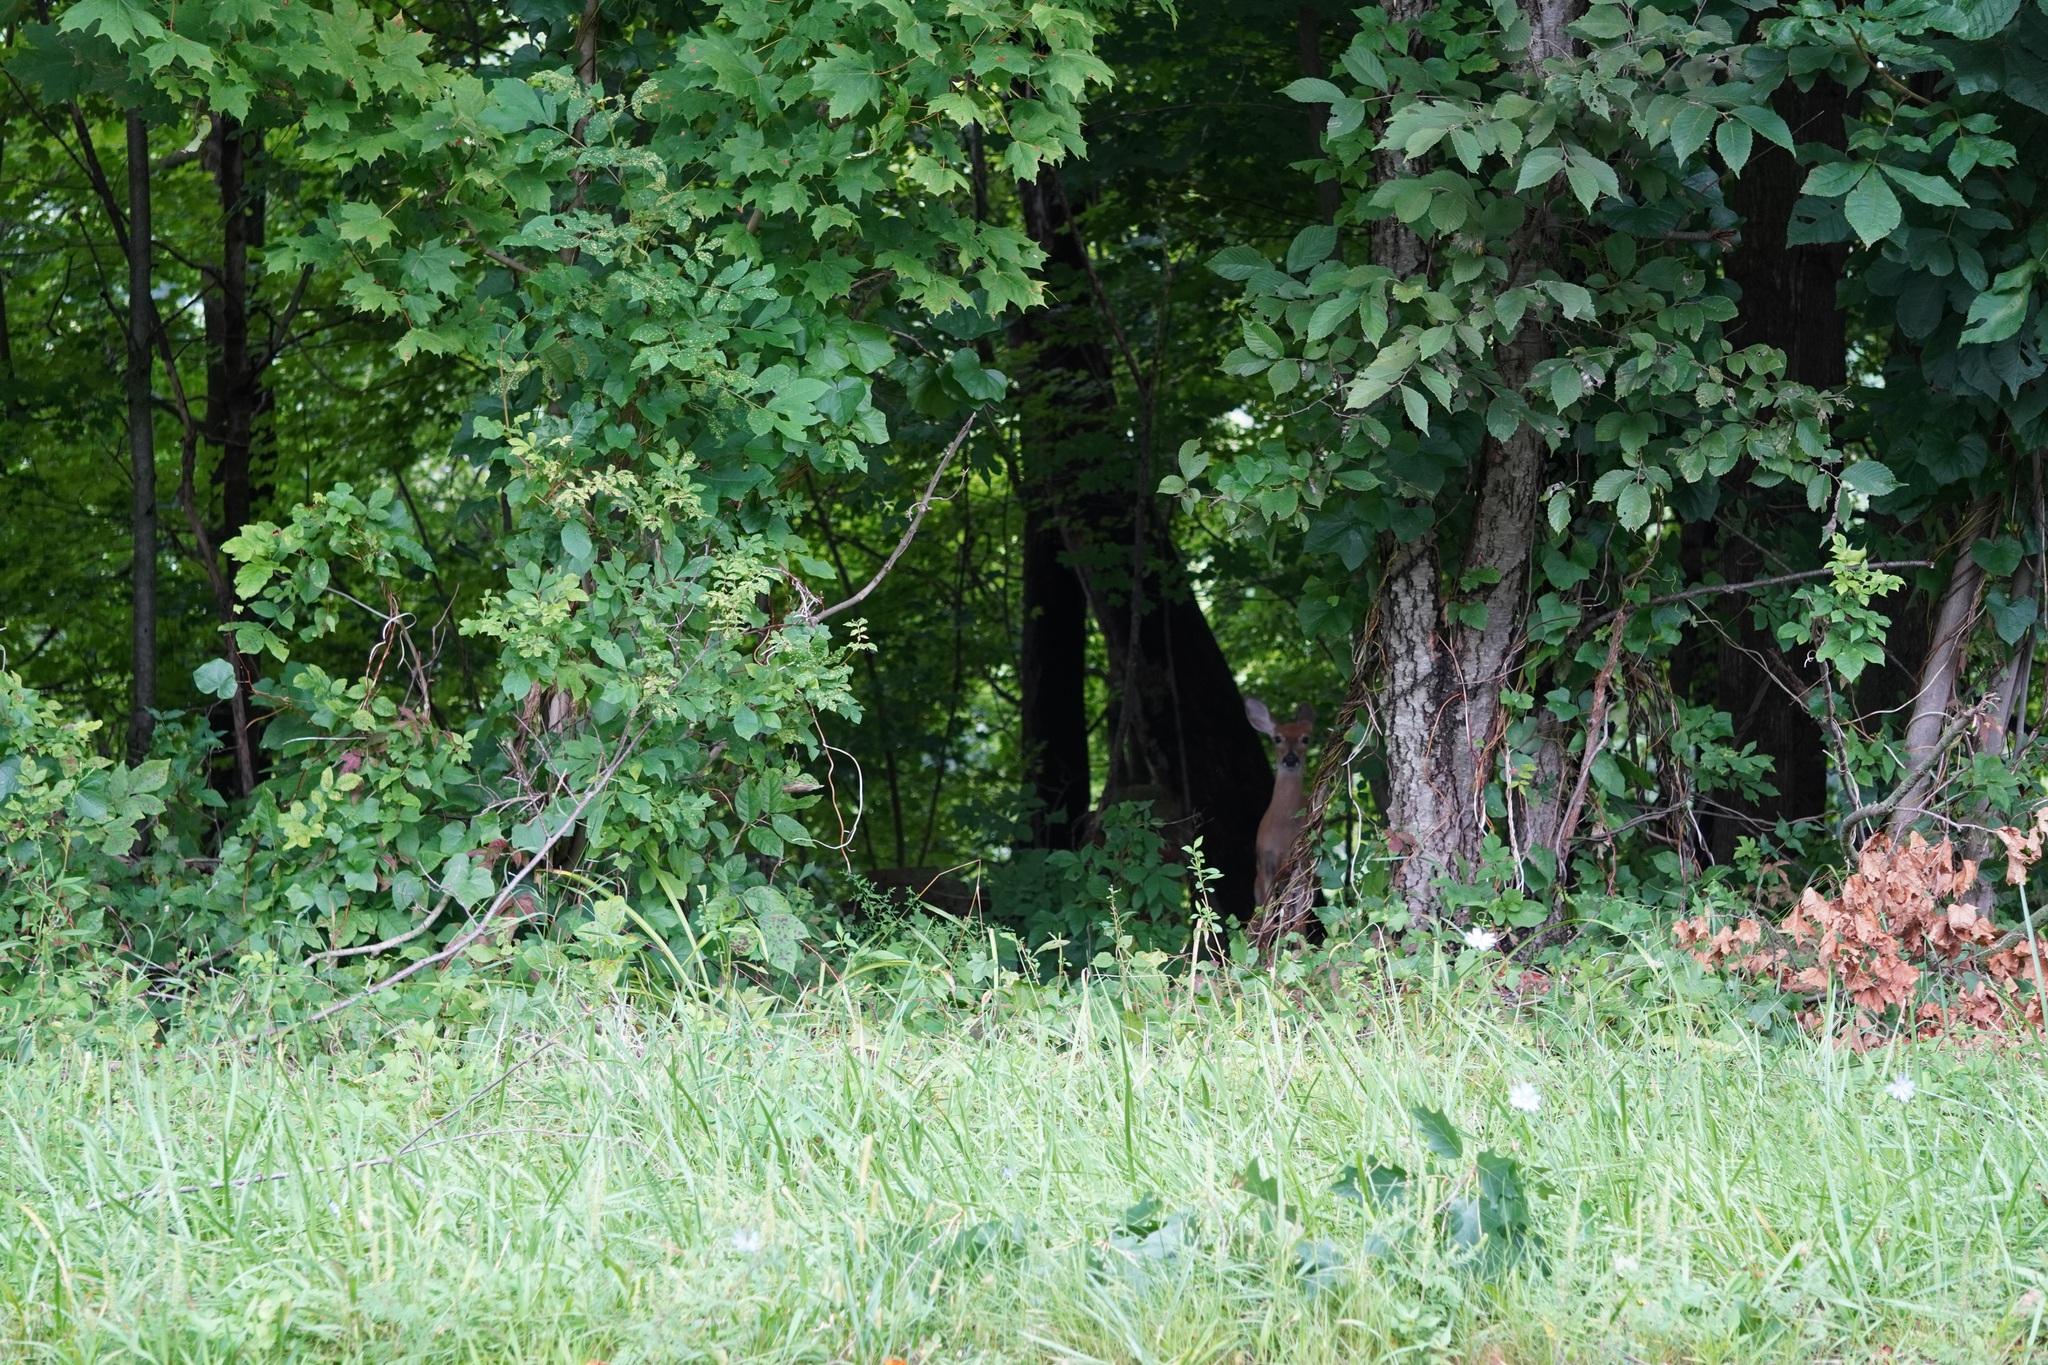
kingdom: Animalia
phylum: Chordata
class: Mammalia
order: Artiodactyla
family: Cervidae
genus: Odocoileus
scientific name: Odocoileus virginianus
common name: White-tailed deer
